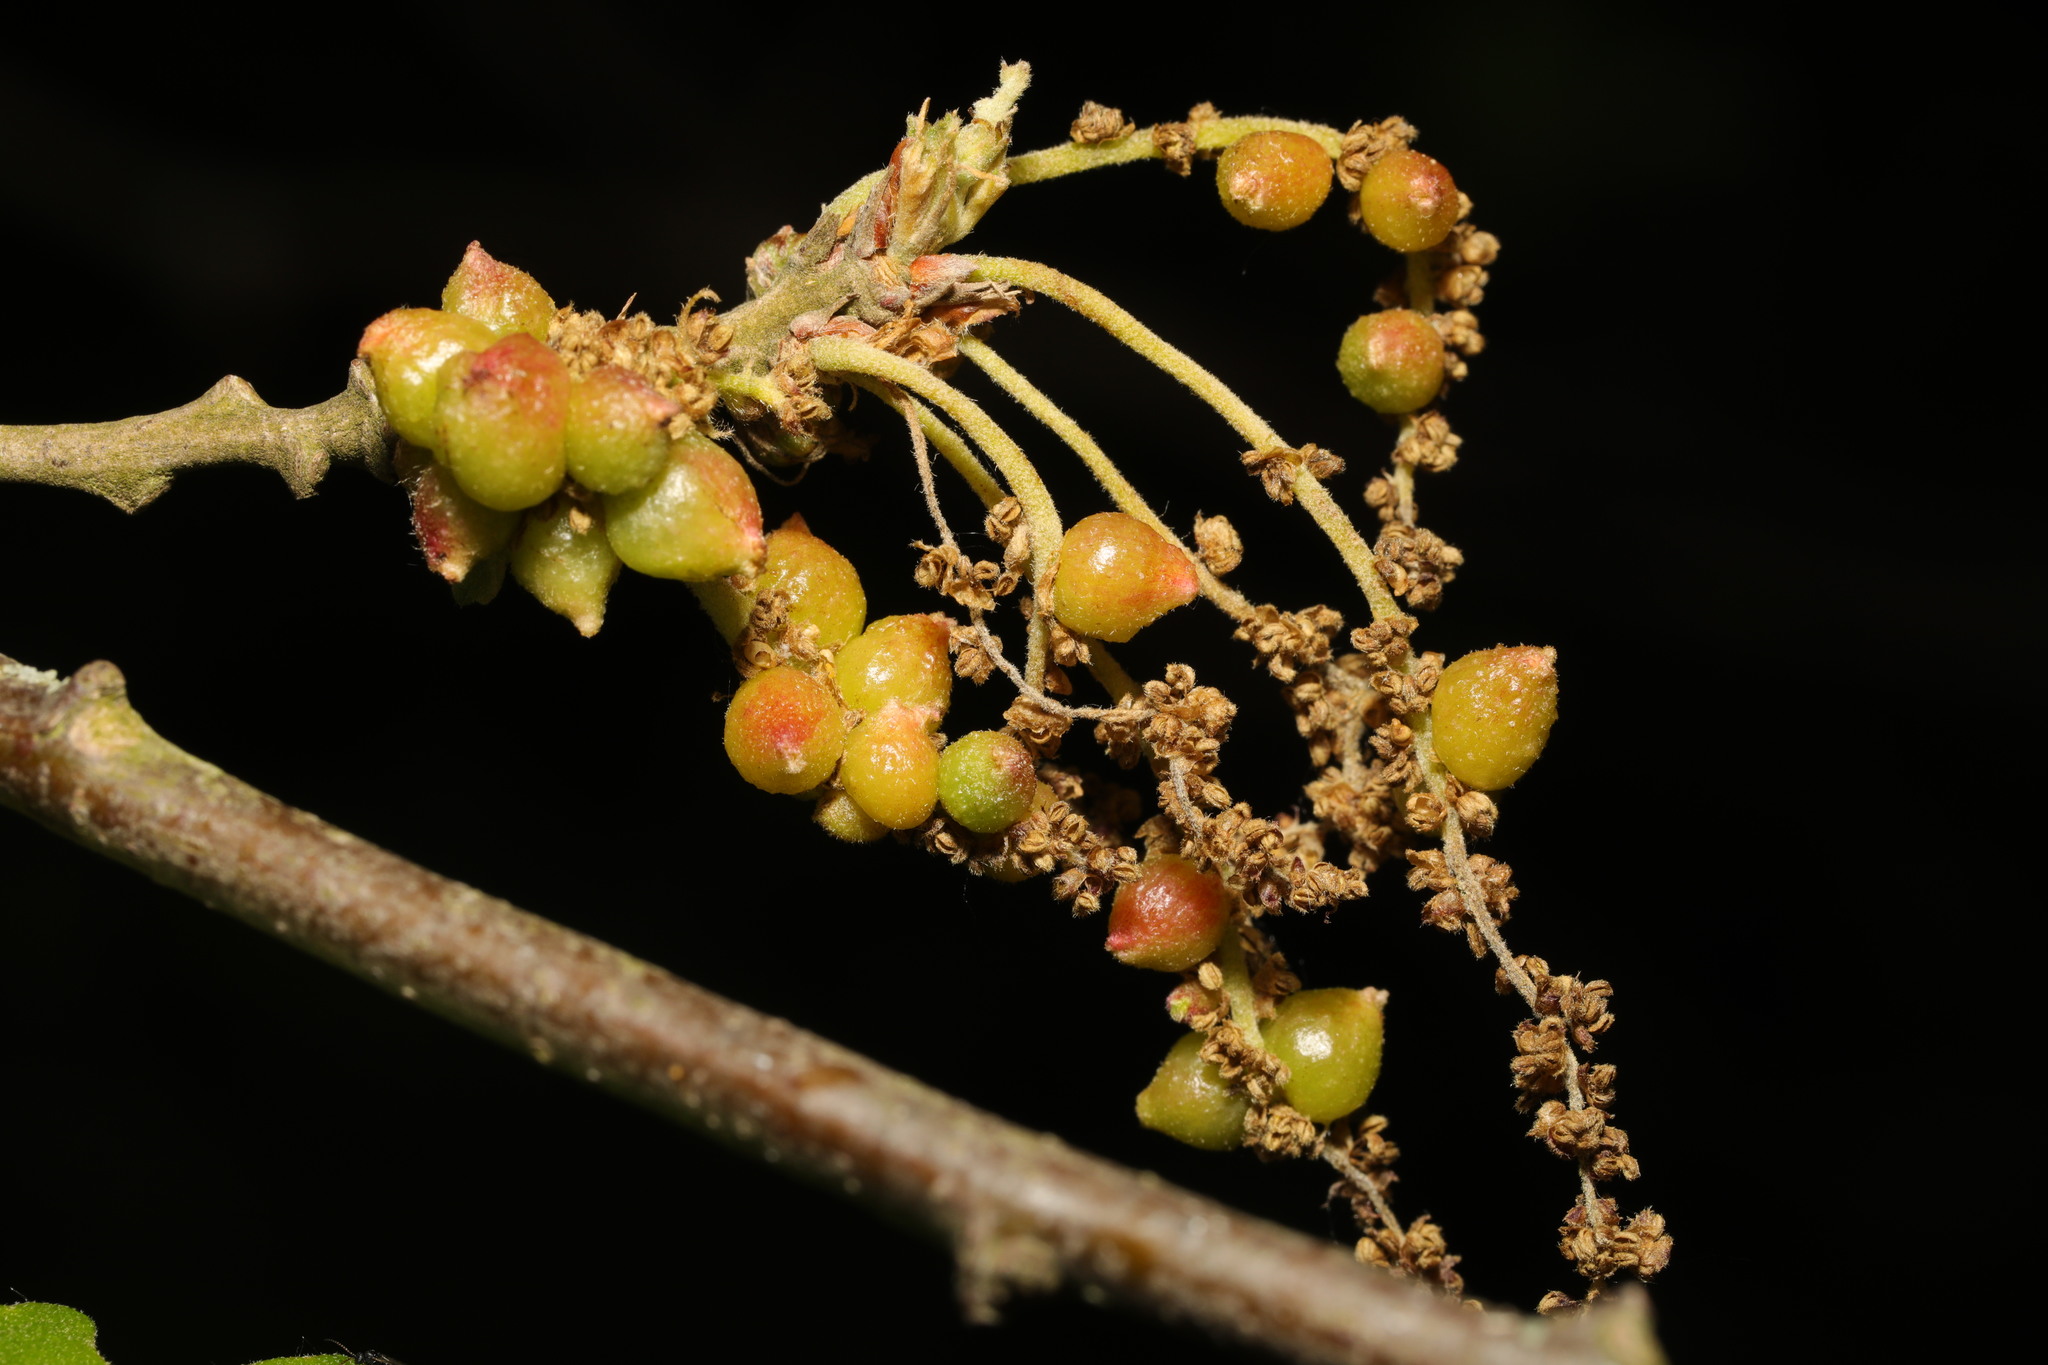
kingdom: Animalia
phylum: Arthropoda
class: Insecta
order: Hymenoptera
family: Cynipidae
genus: Andricus
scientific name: Andricus grossulariae
